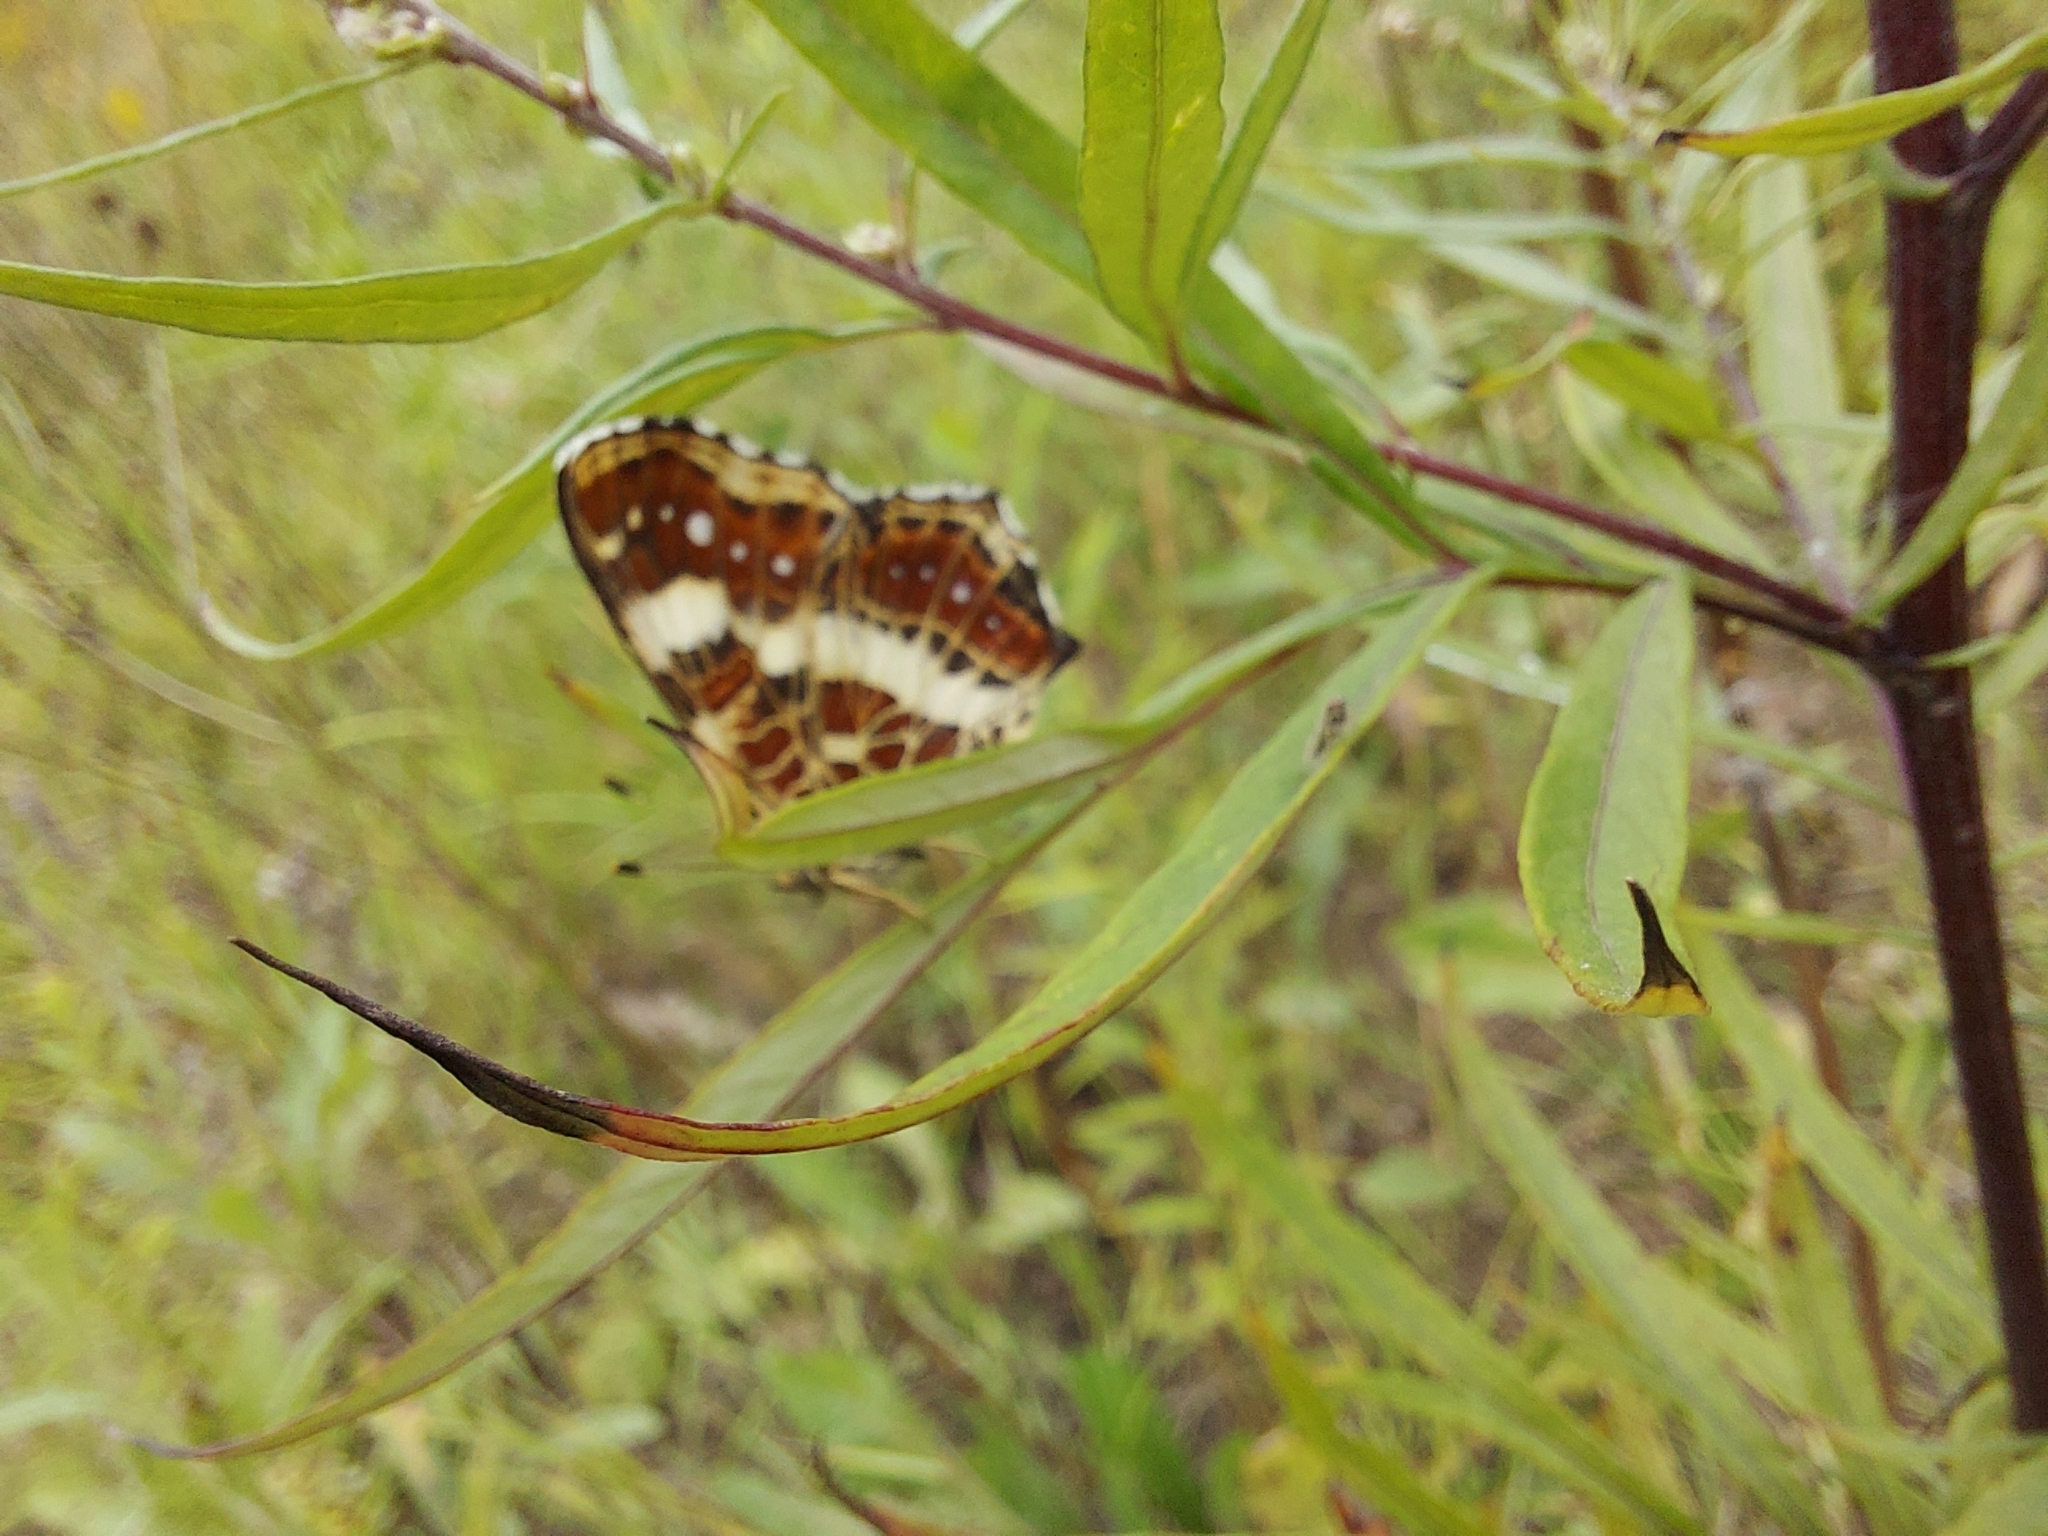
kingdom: Animalia
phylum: Arthropoda
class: Insecta
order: Lepidoptera
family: Nymphalidae
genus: Araschnia
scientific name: Araschnia levana
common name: Map butterfly
